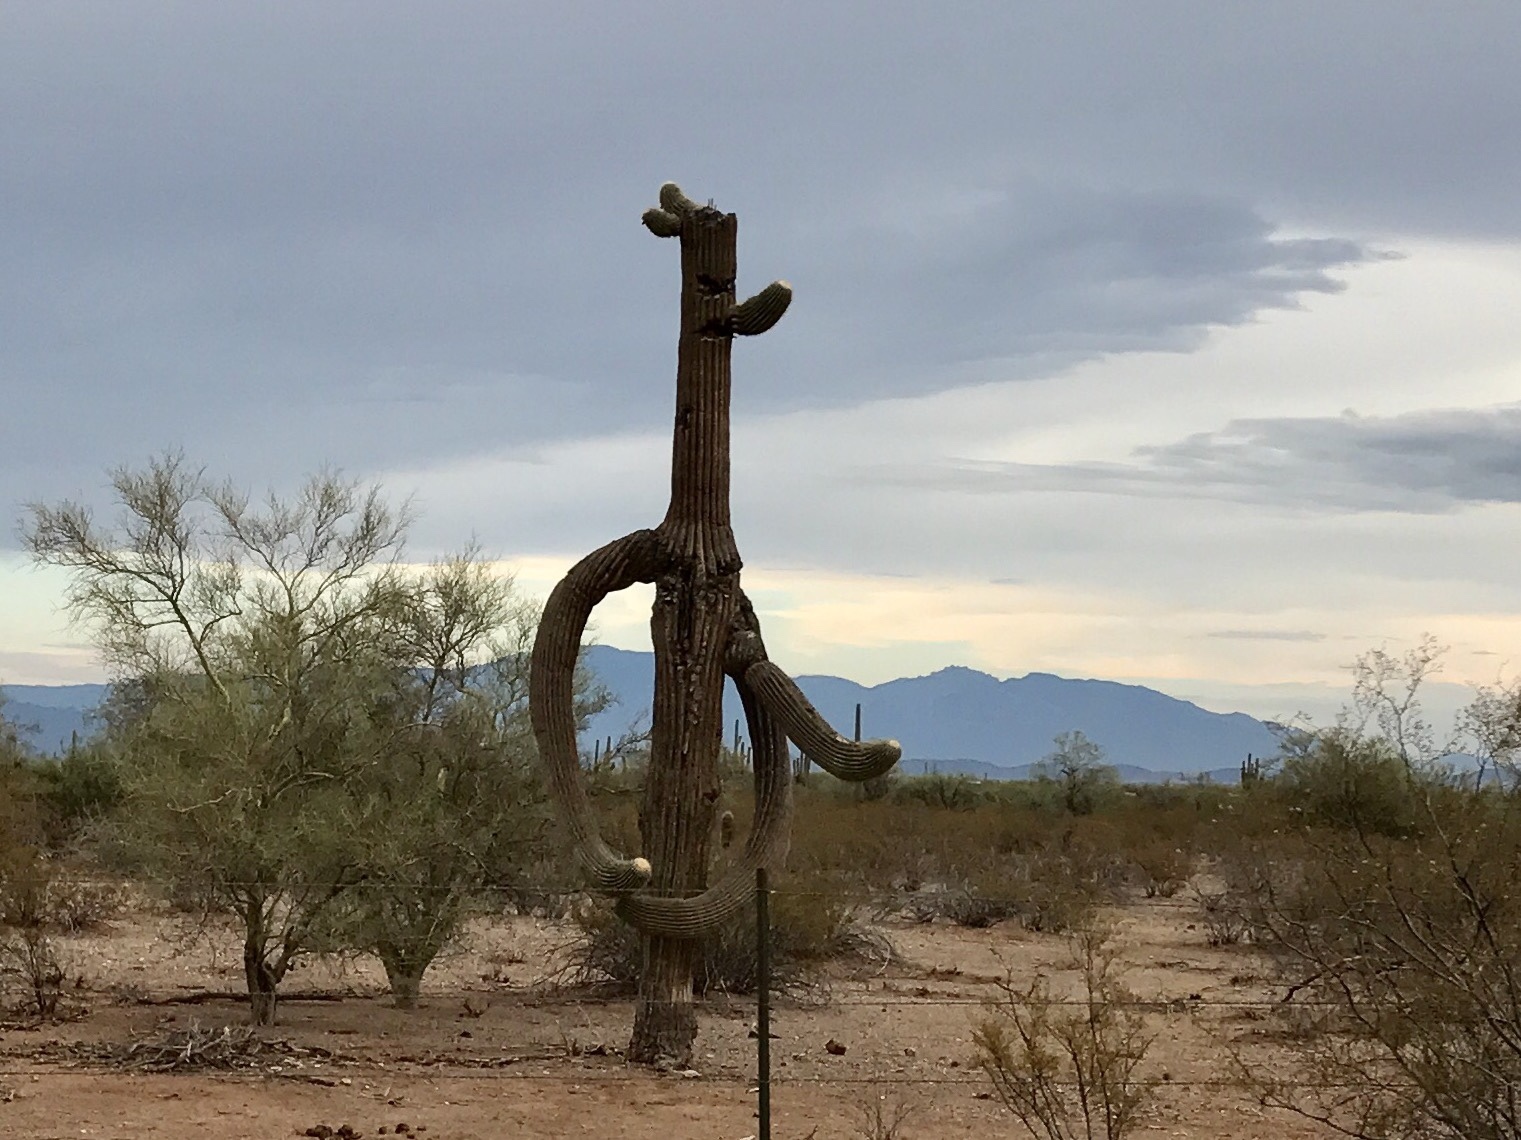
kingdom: Plantae
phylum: Tracheophyta
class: Magnoliopsida
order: Caryophyllales
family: Cactaceae
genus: Carnegiea
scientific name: Carnegiea gigantea
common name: Saguaro
